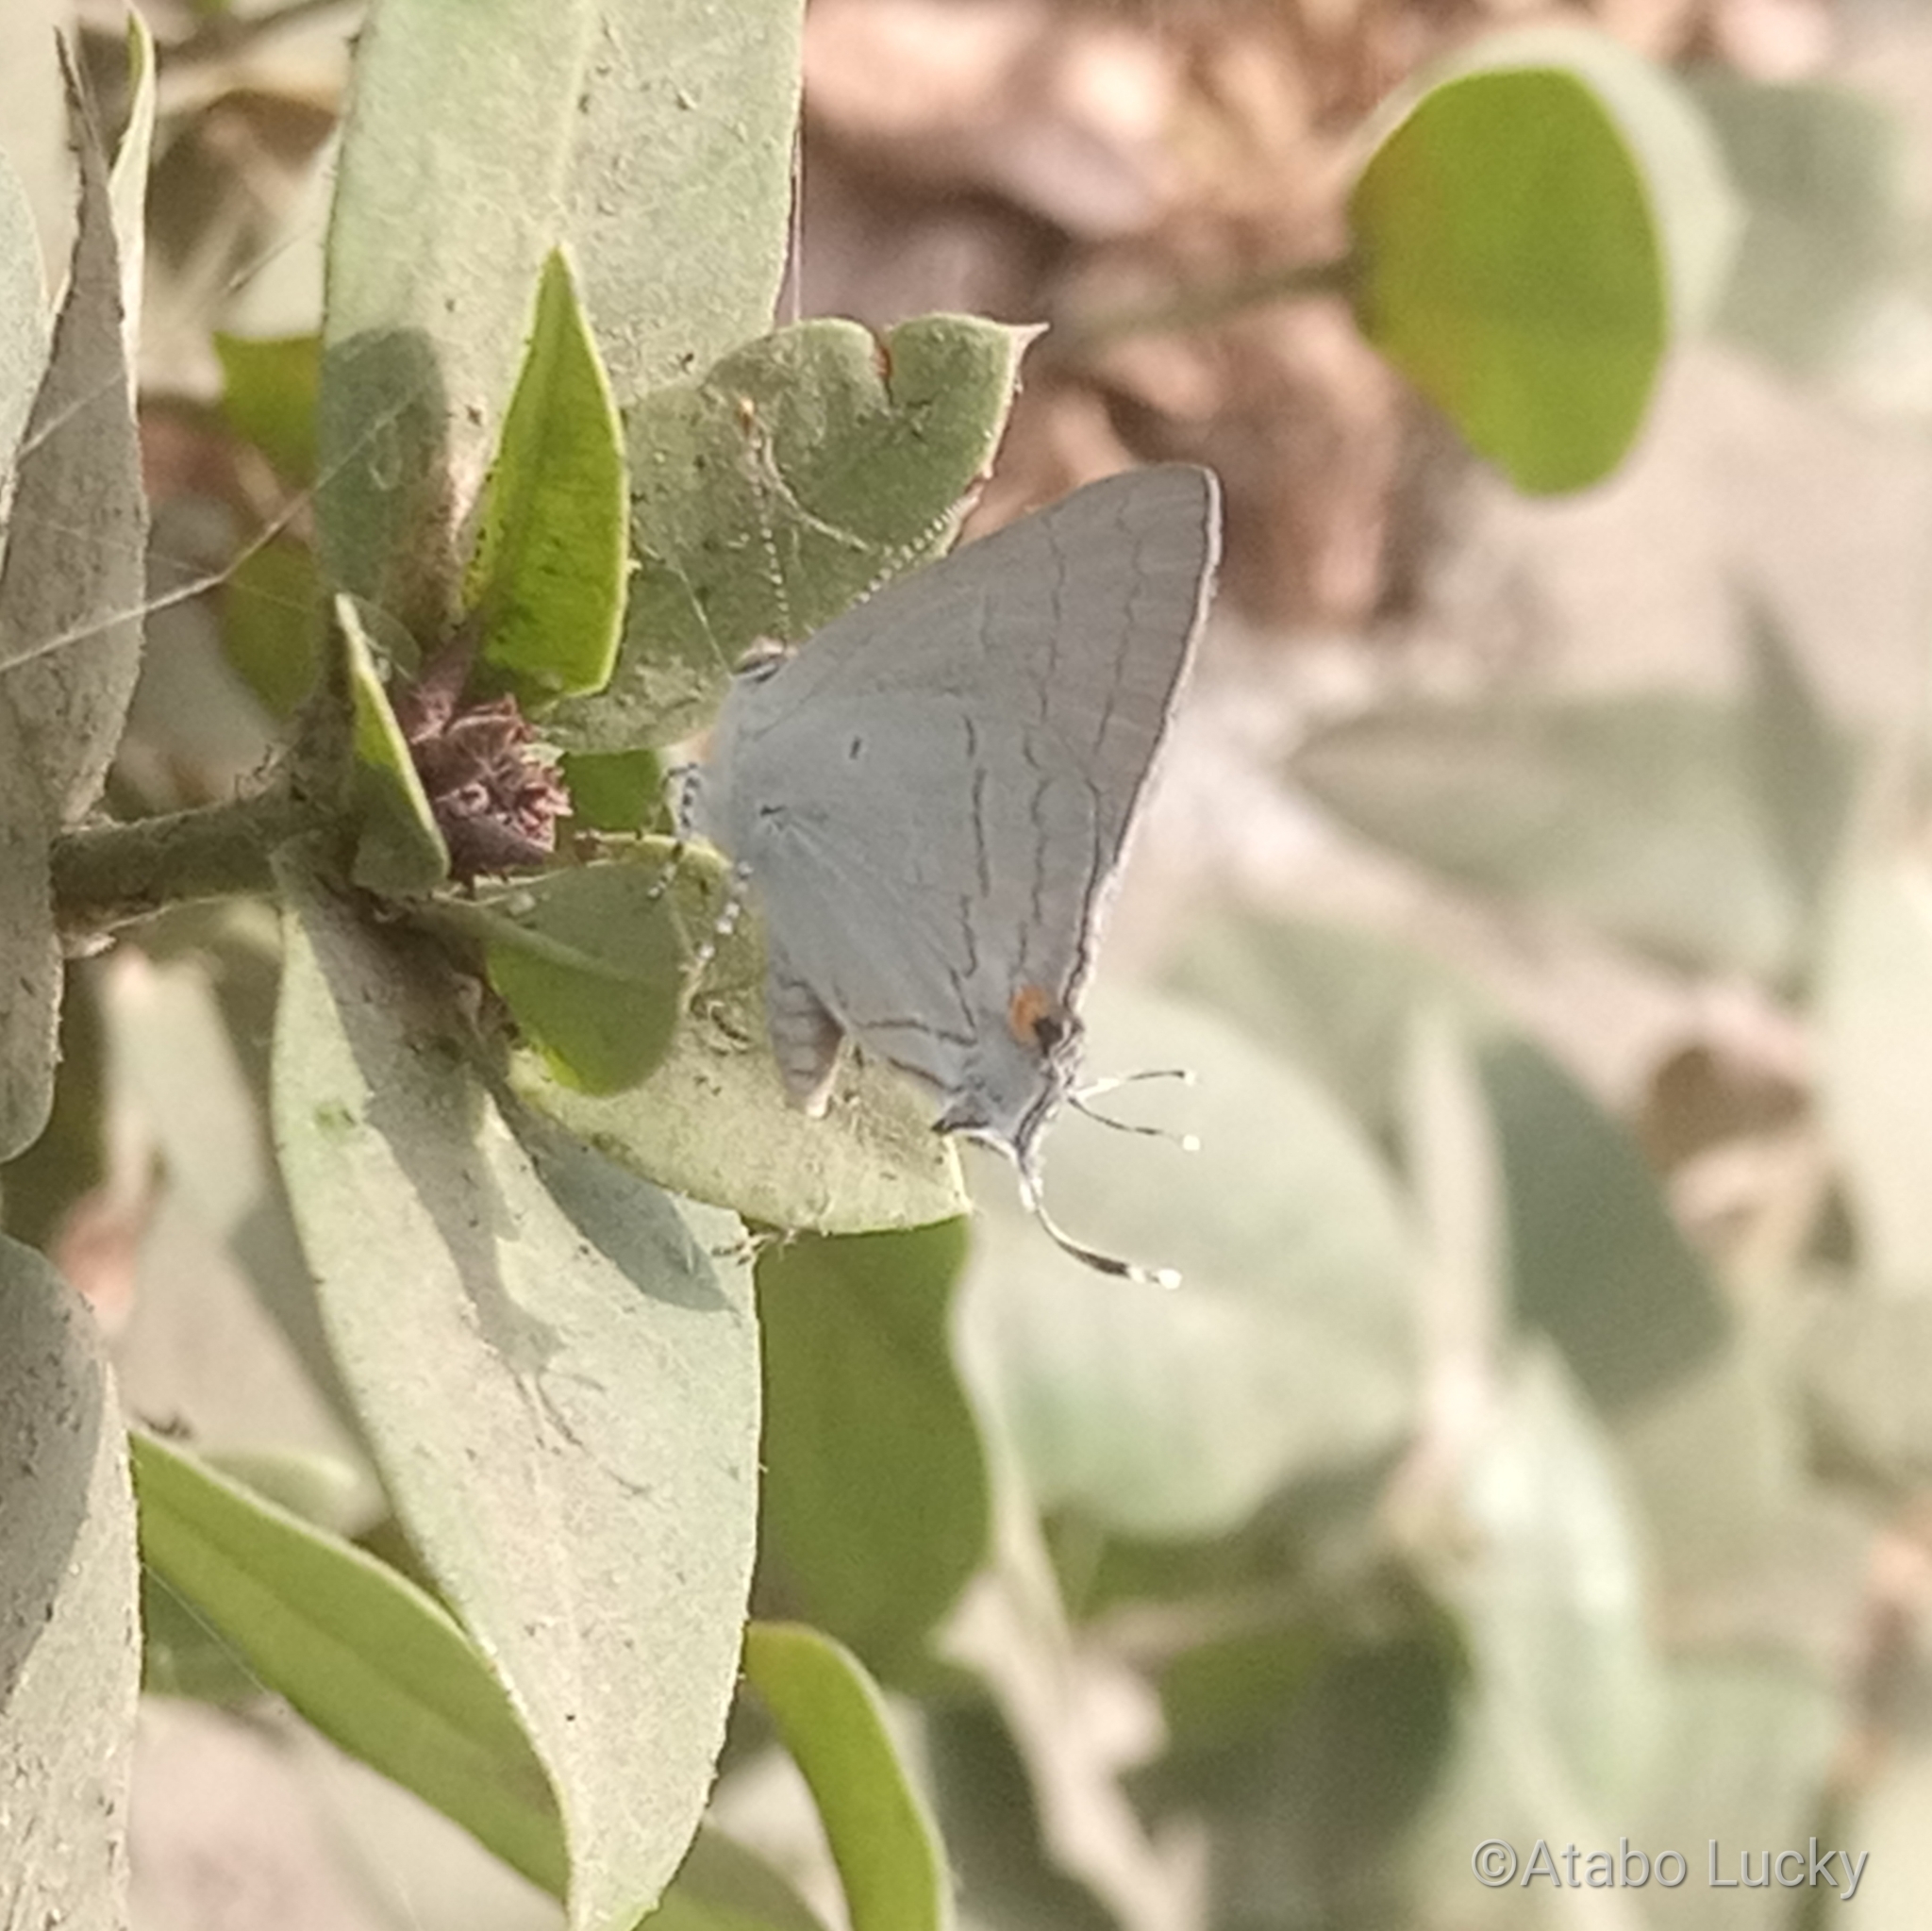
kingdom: Animalia
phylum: Arthropoda
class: Insecta
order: Lepidoptera
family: Lycaenidae
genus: Hypolycaena
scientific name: Hypolycaena philippus
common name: Common hairstreak
